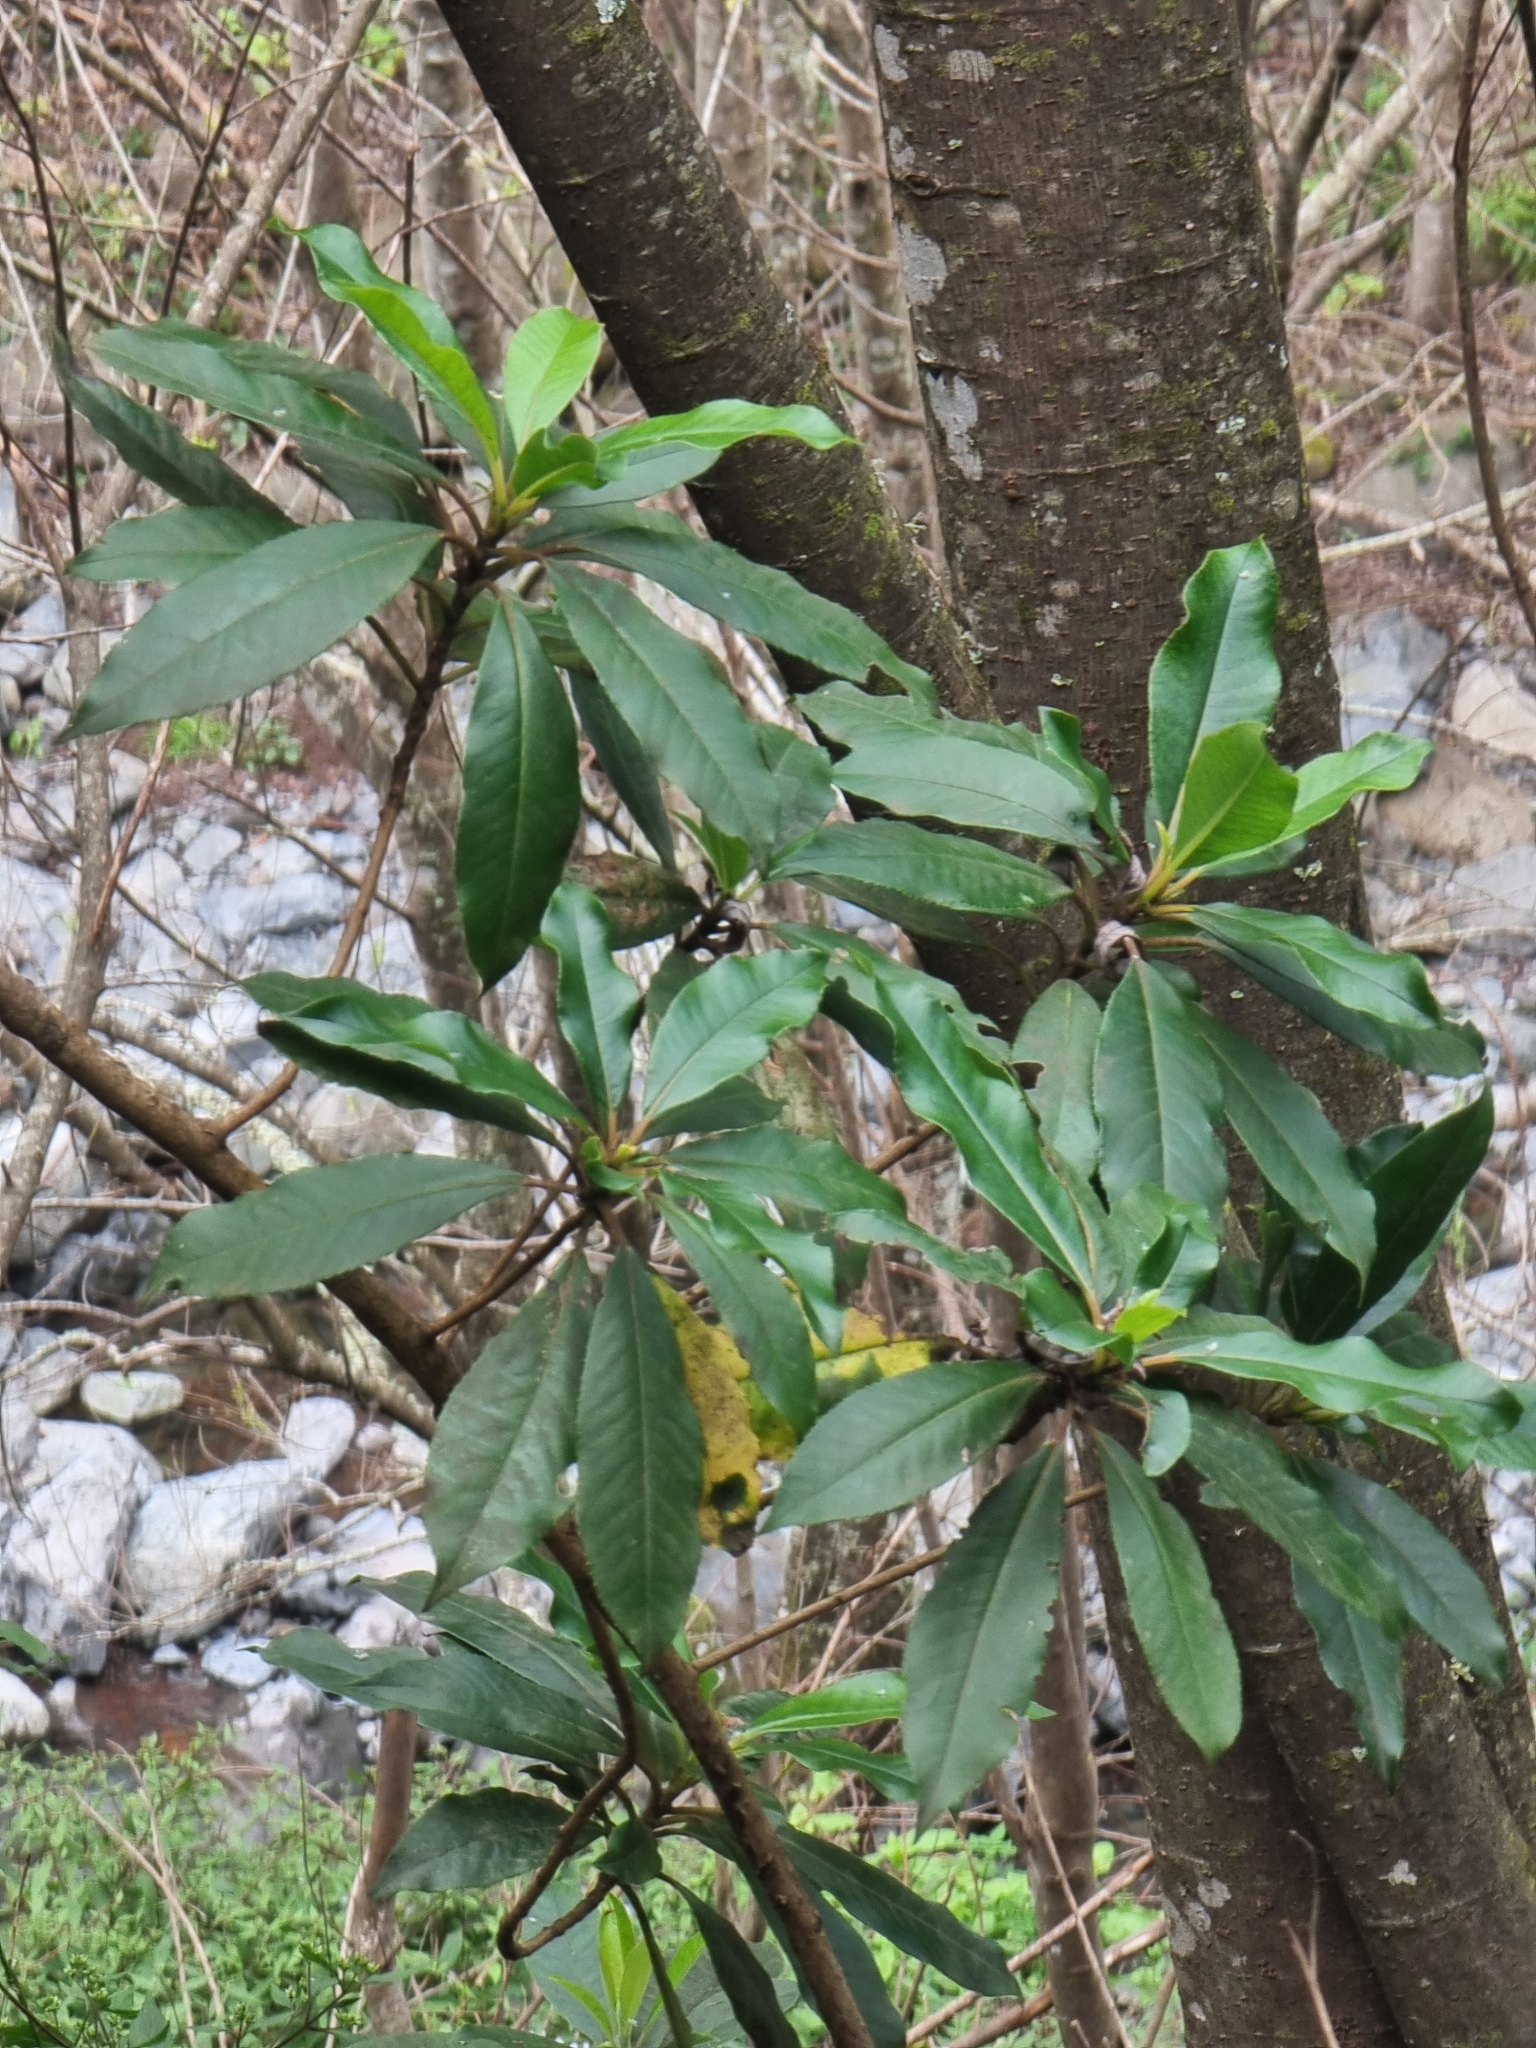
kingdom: Plantae
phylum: Tracheophyta
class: Magnoliopsida
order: Ericales
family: Clethraceae
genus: Clethra
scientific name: Clethra arborea
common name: Lily-of-the-valley-tree
